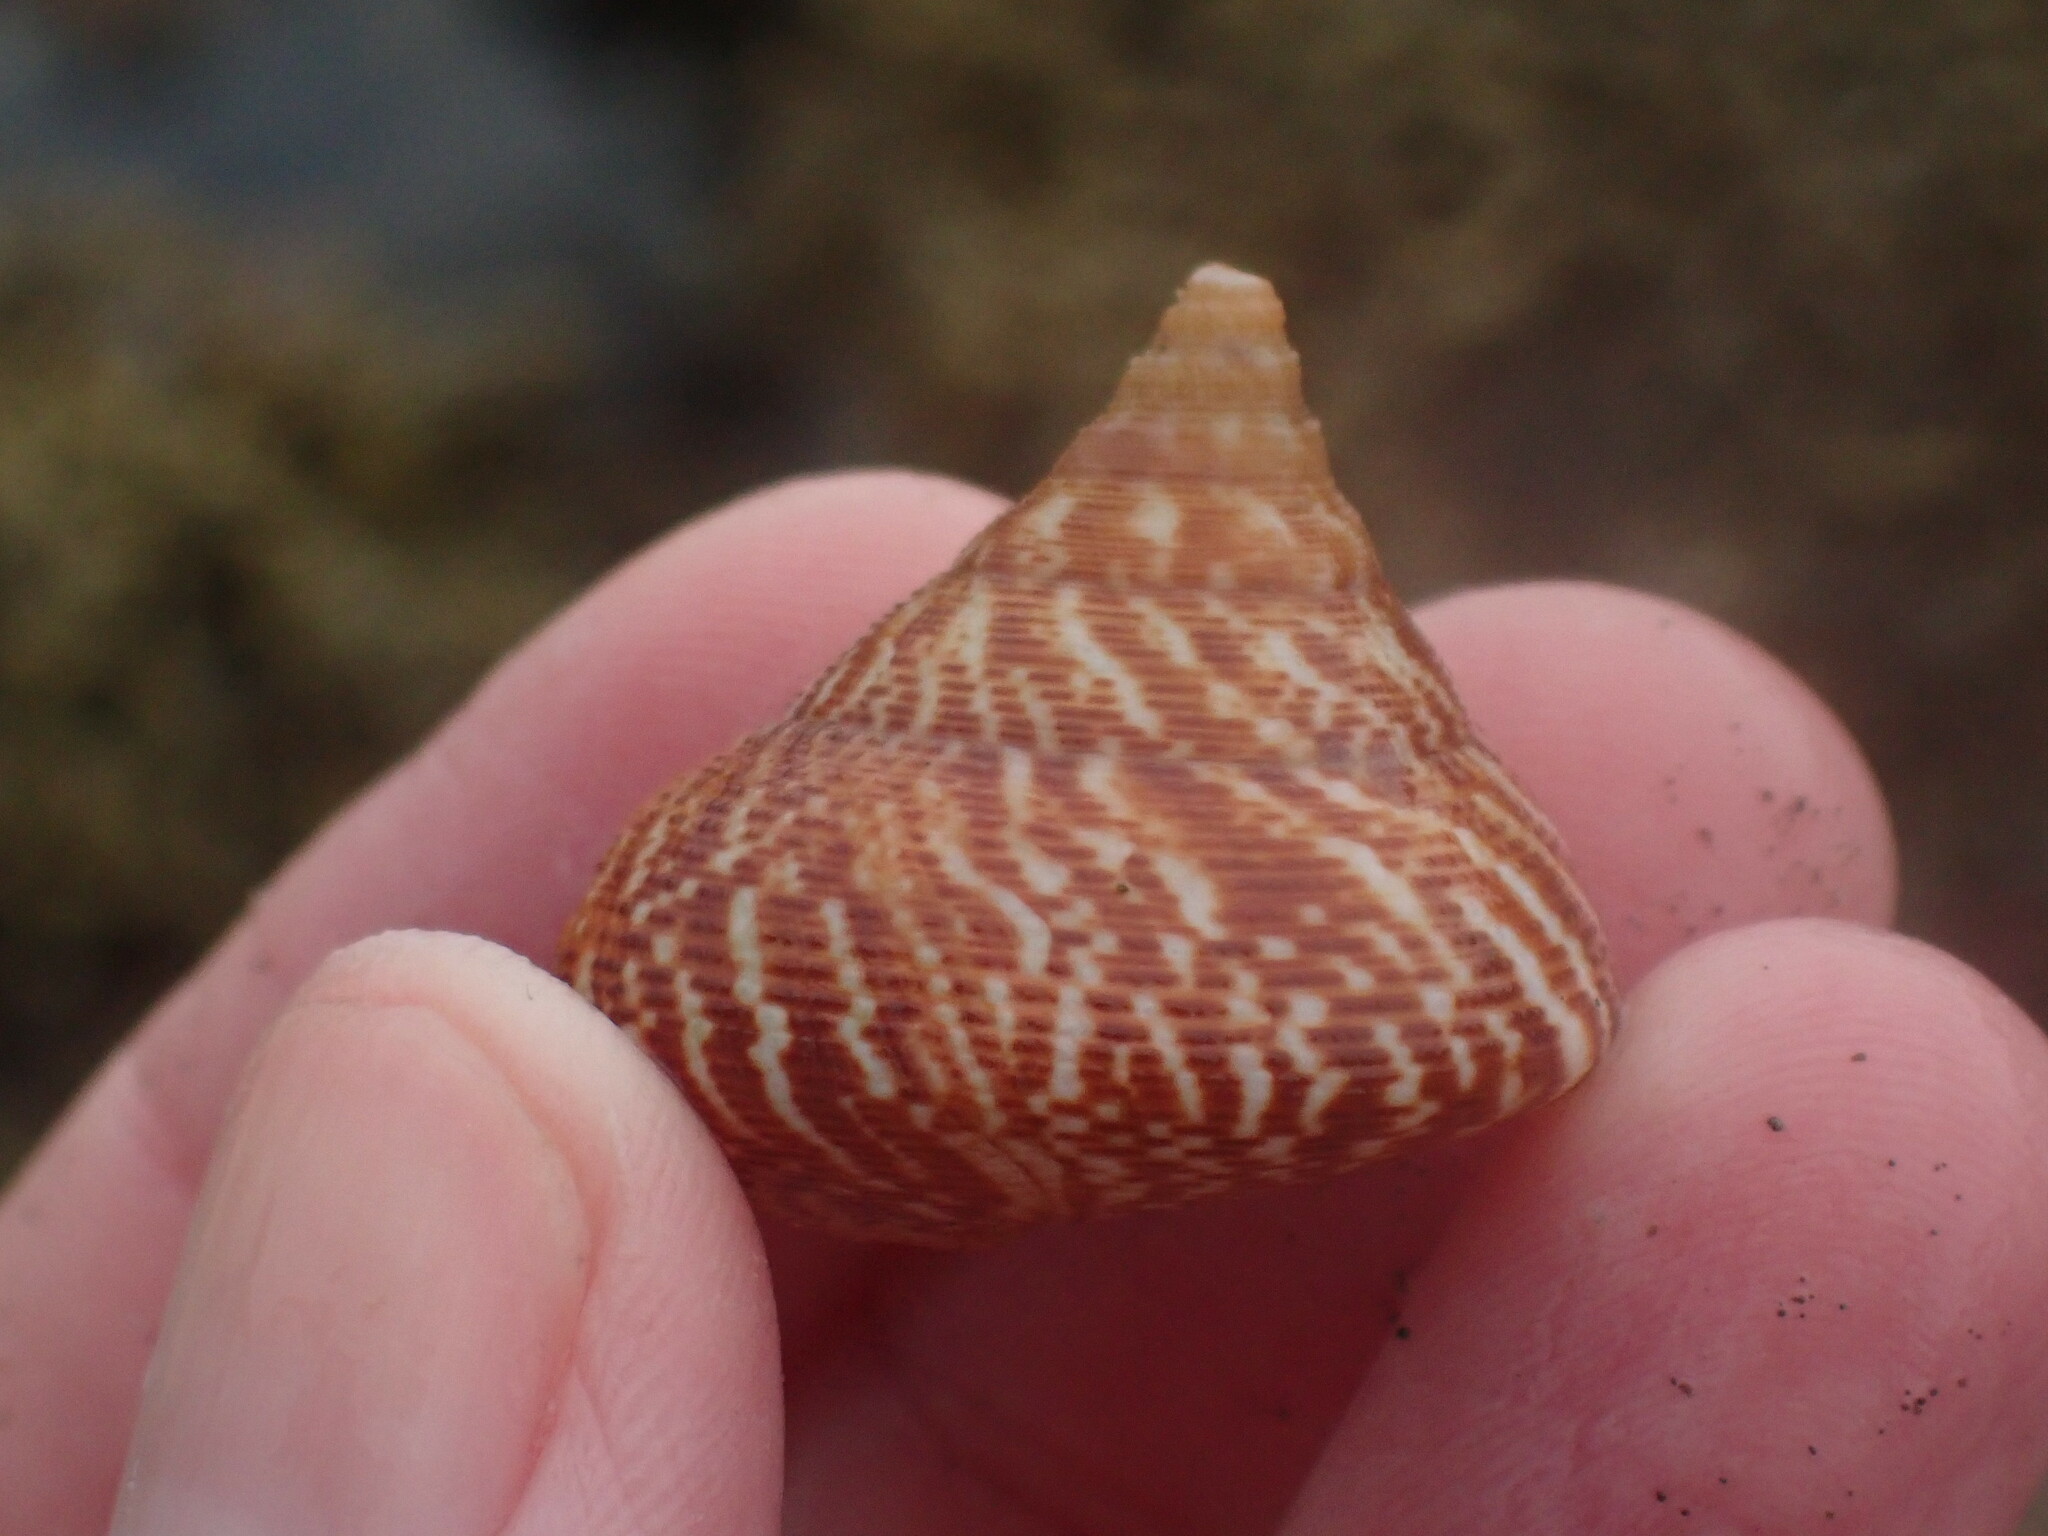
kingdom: Animalia
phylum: Mollusca
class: Gastropoda
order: Trochida
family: Calliostomatidae
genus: Maurea
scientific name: Maurea tigris
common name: Tiger maurea
